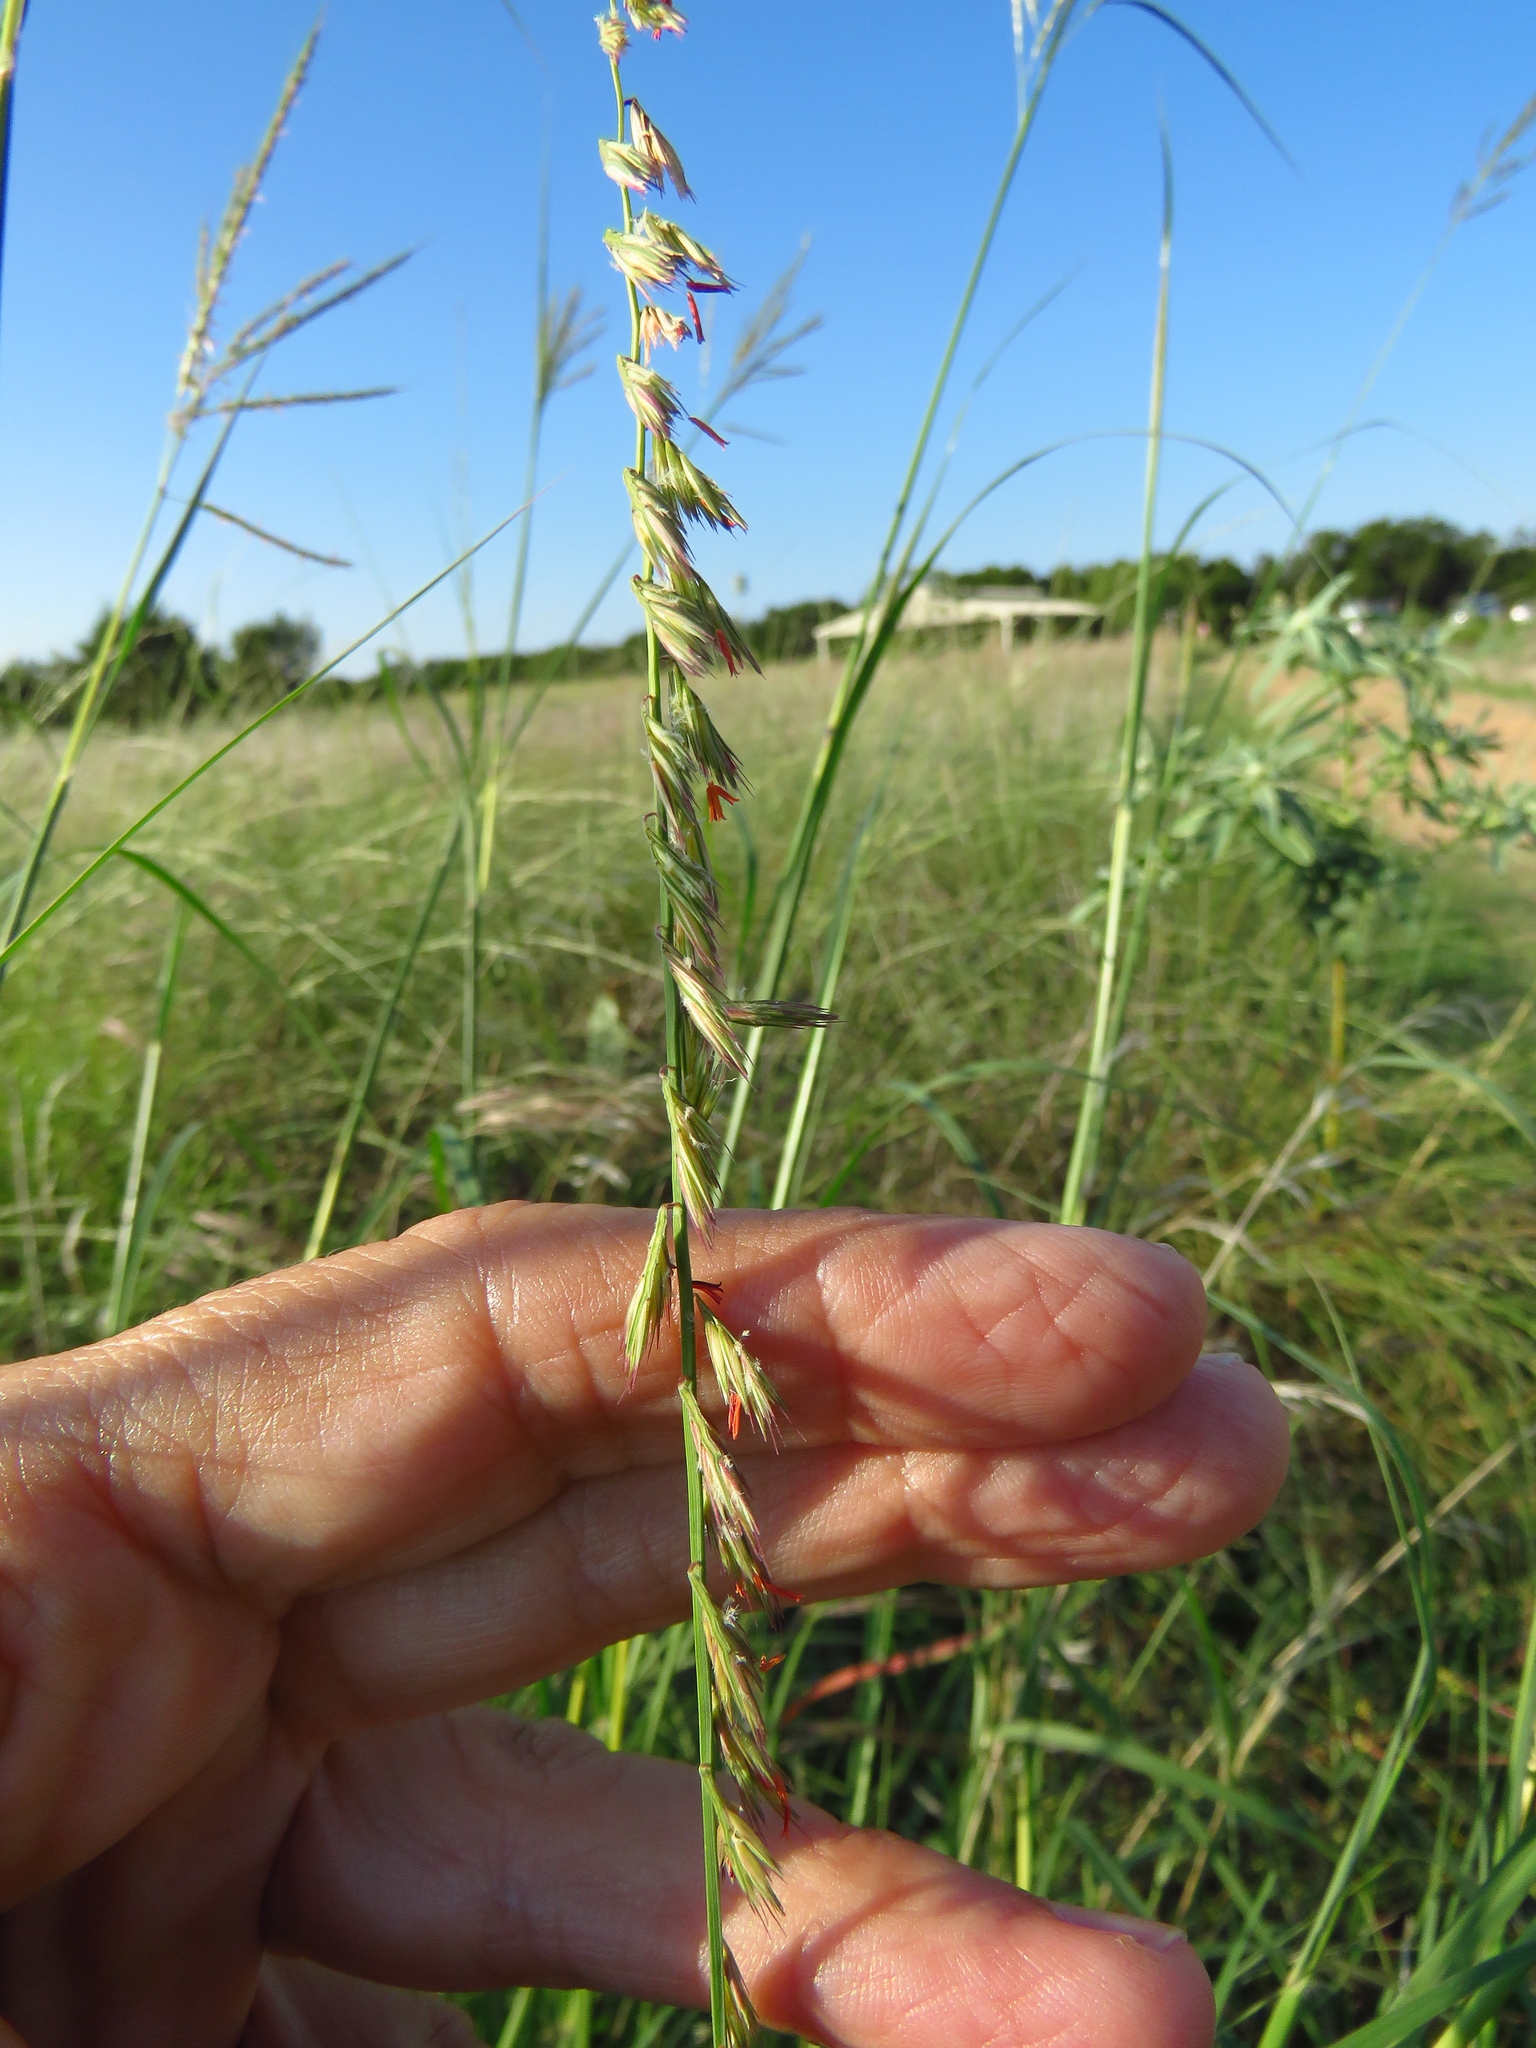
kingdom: Plantae
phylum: Tracheophyta
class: Liliopsida
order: Poales
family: Poaceae
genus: Bouteloua
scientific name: Bouteloua curtipendula
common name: Side-oats grama
